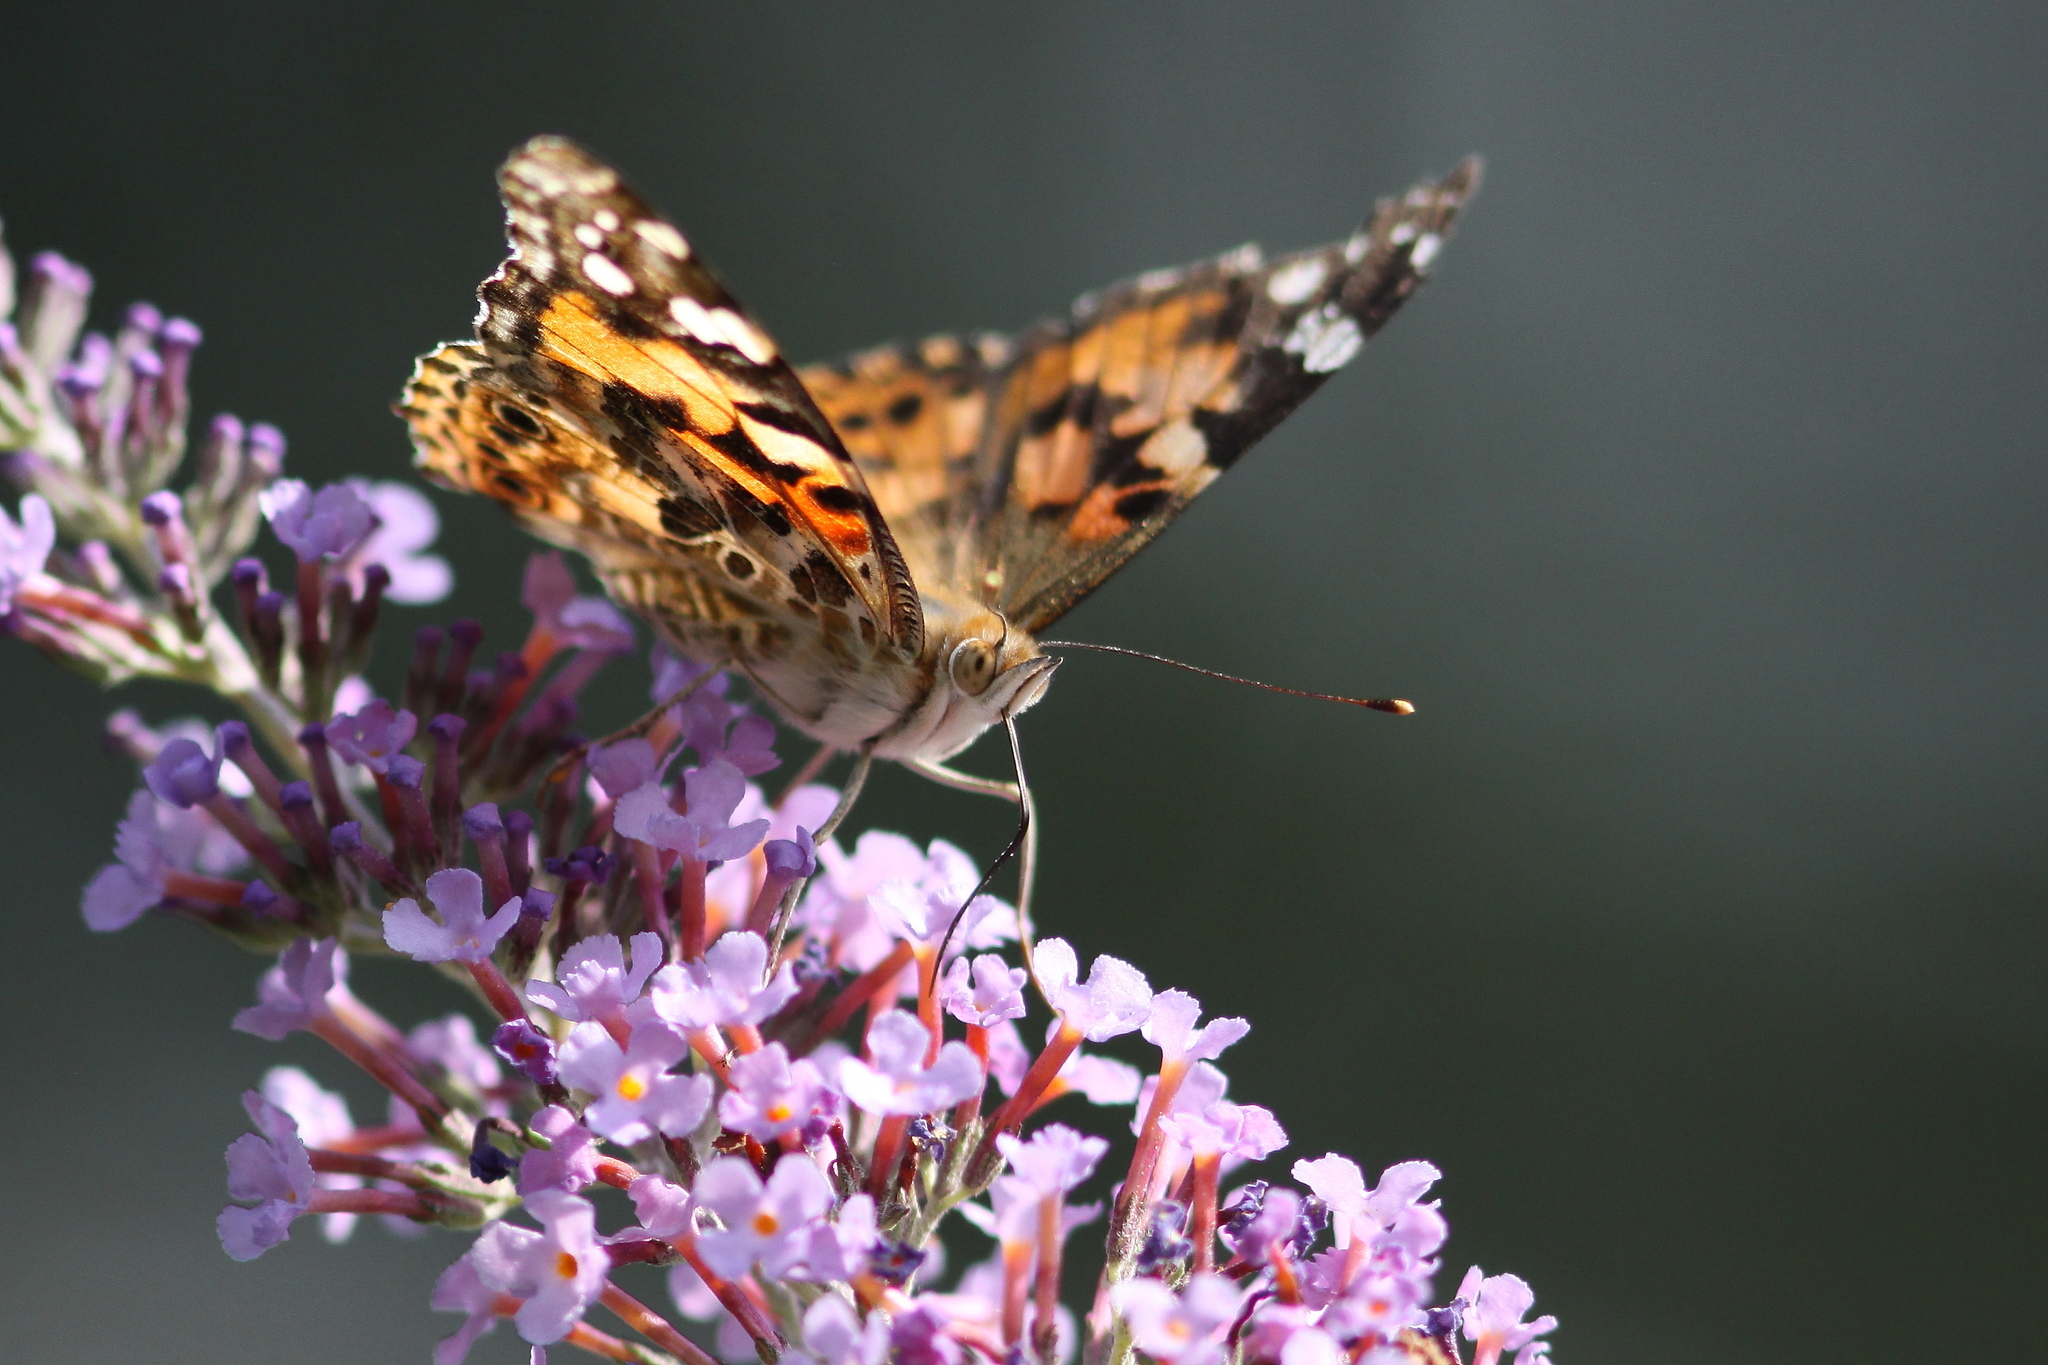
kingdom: Animalia
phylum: Arthropoda
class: Insecta
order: Lepidoptera
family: Nymphalidae
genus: Vanessa
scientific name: Vanessa cardui
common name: Painted lady
